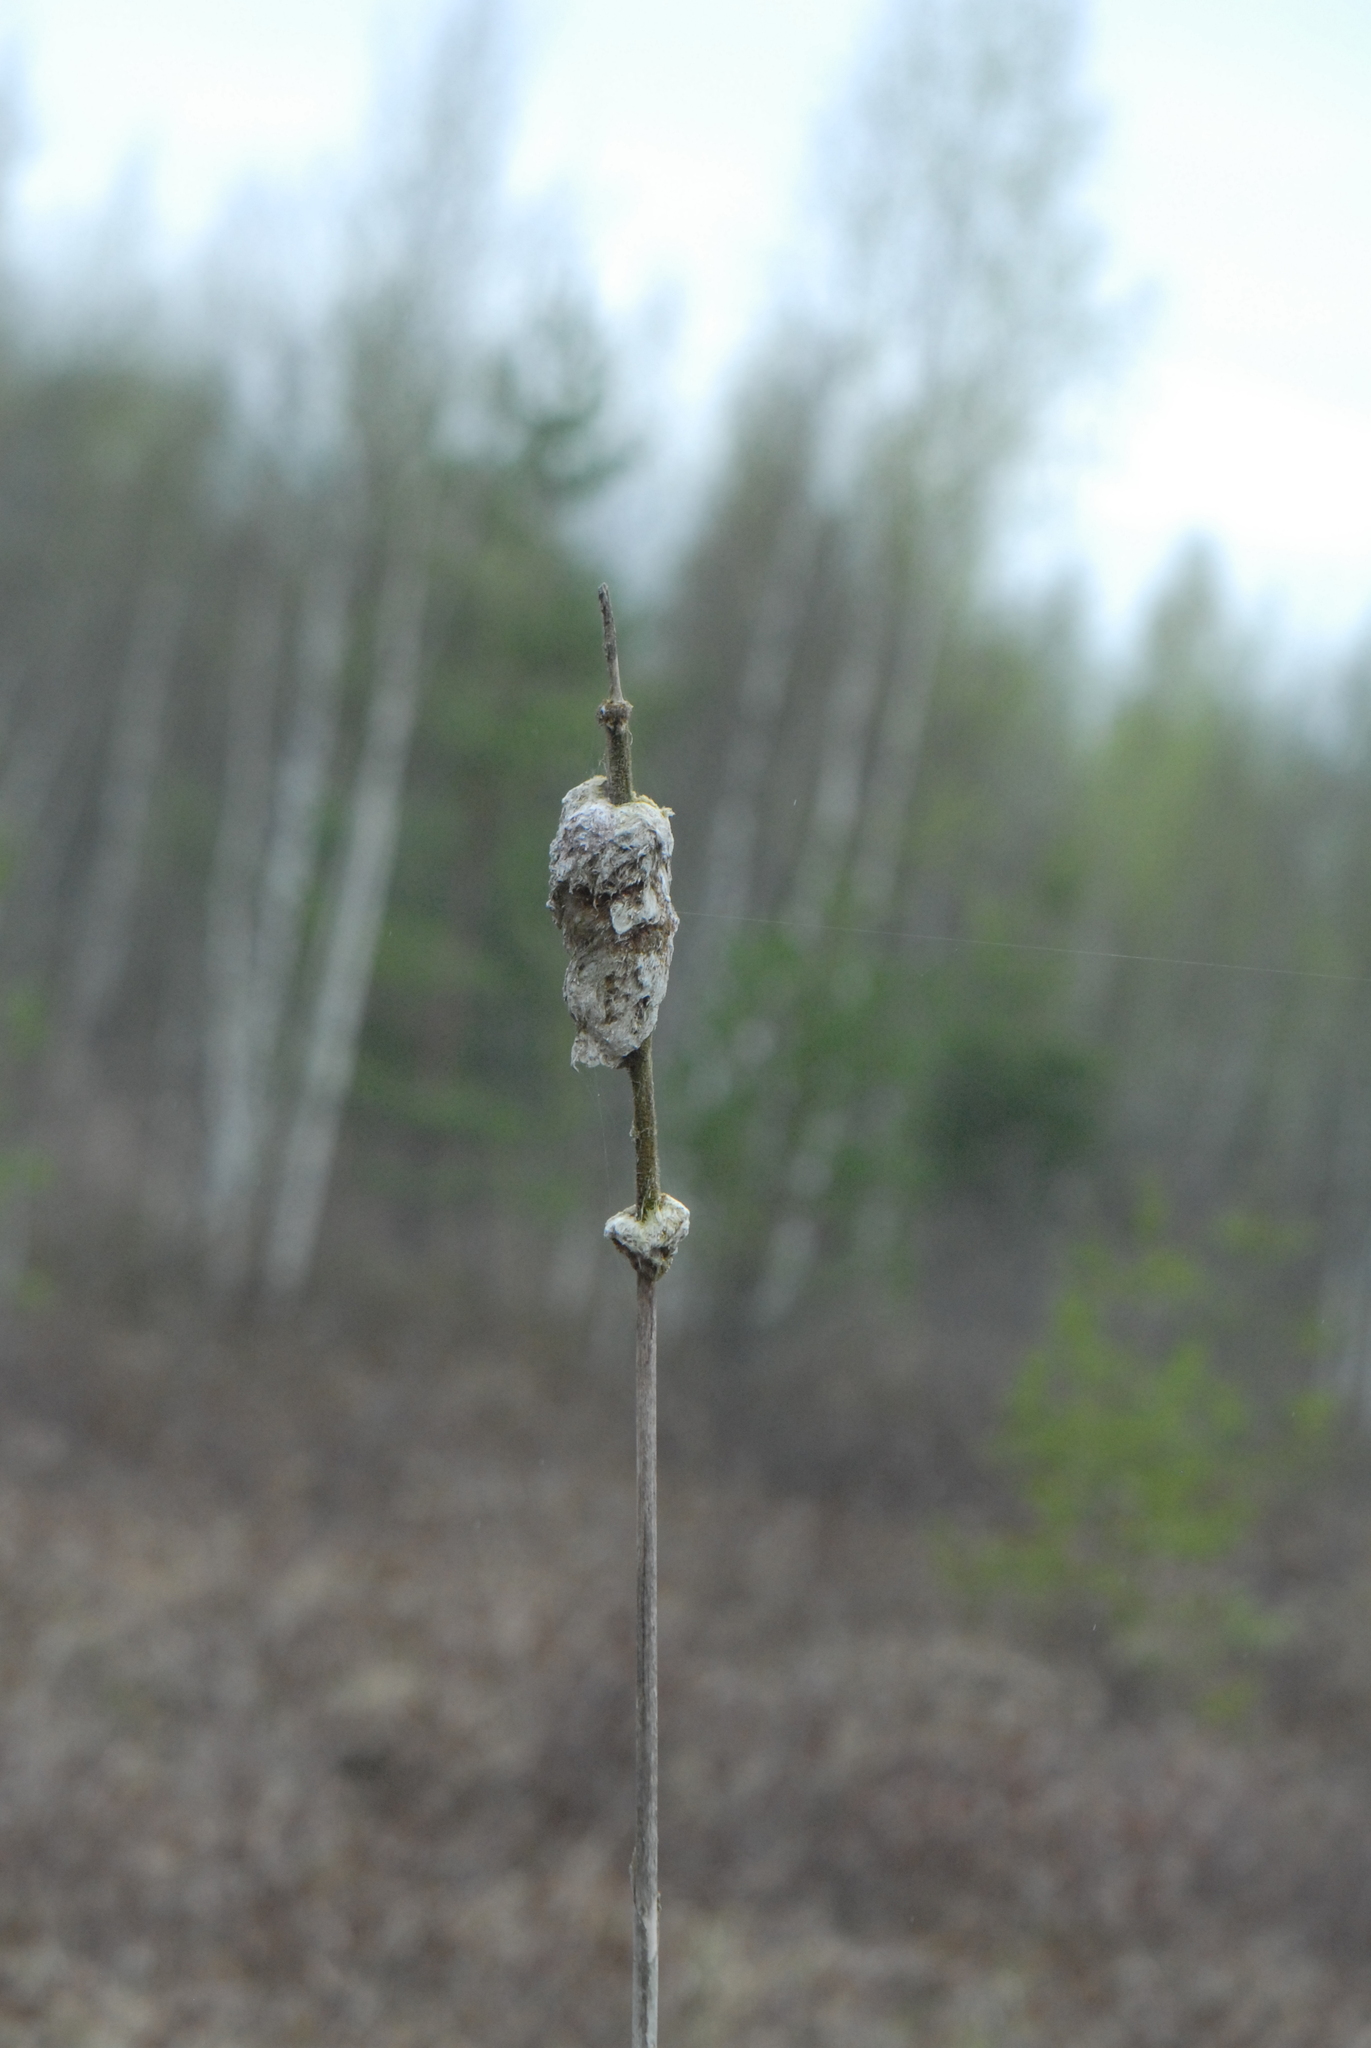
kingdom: Plantae
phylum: Tracheophyta
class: Liliopsida
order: Poales
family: Typhaceae
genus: Typha
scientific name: Typha latifolia
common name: Broadleaf cattail
